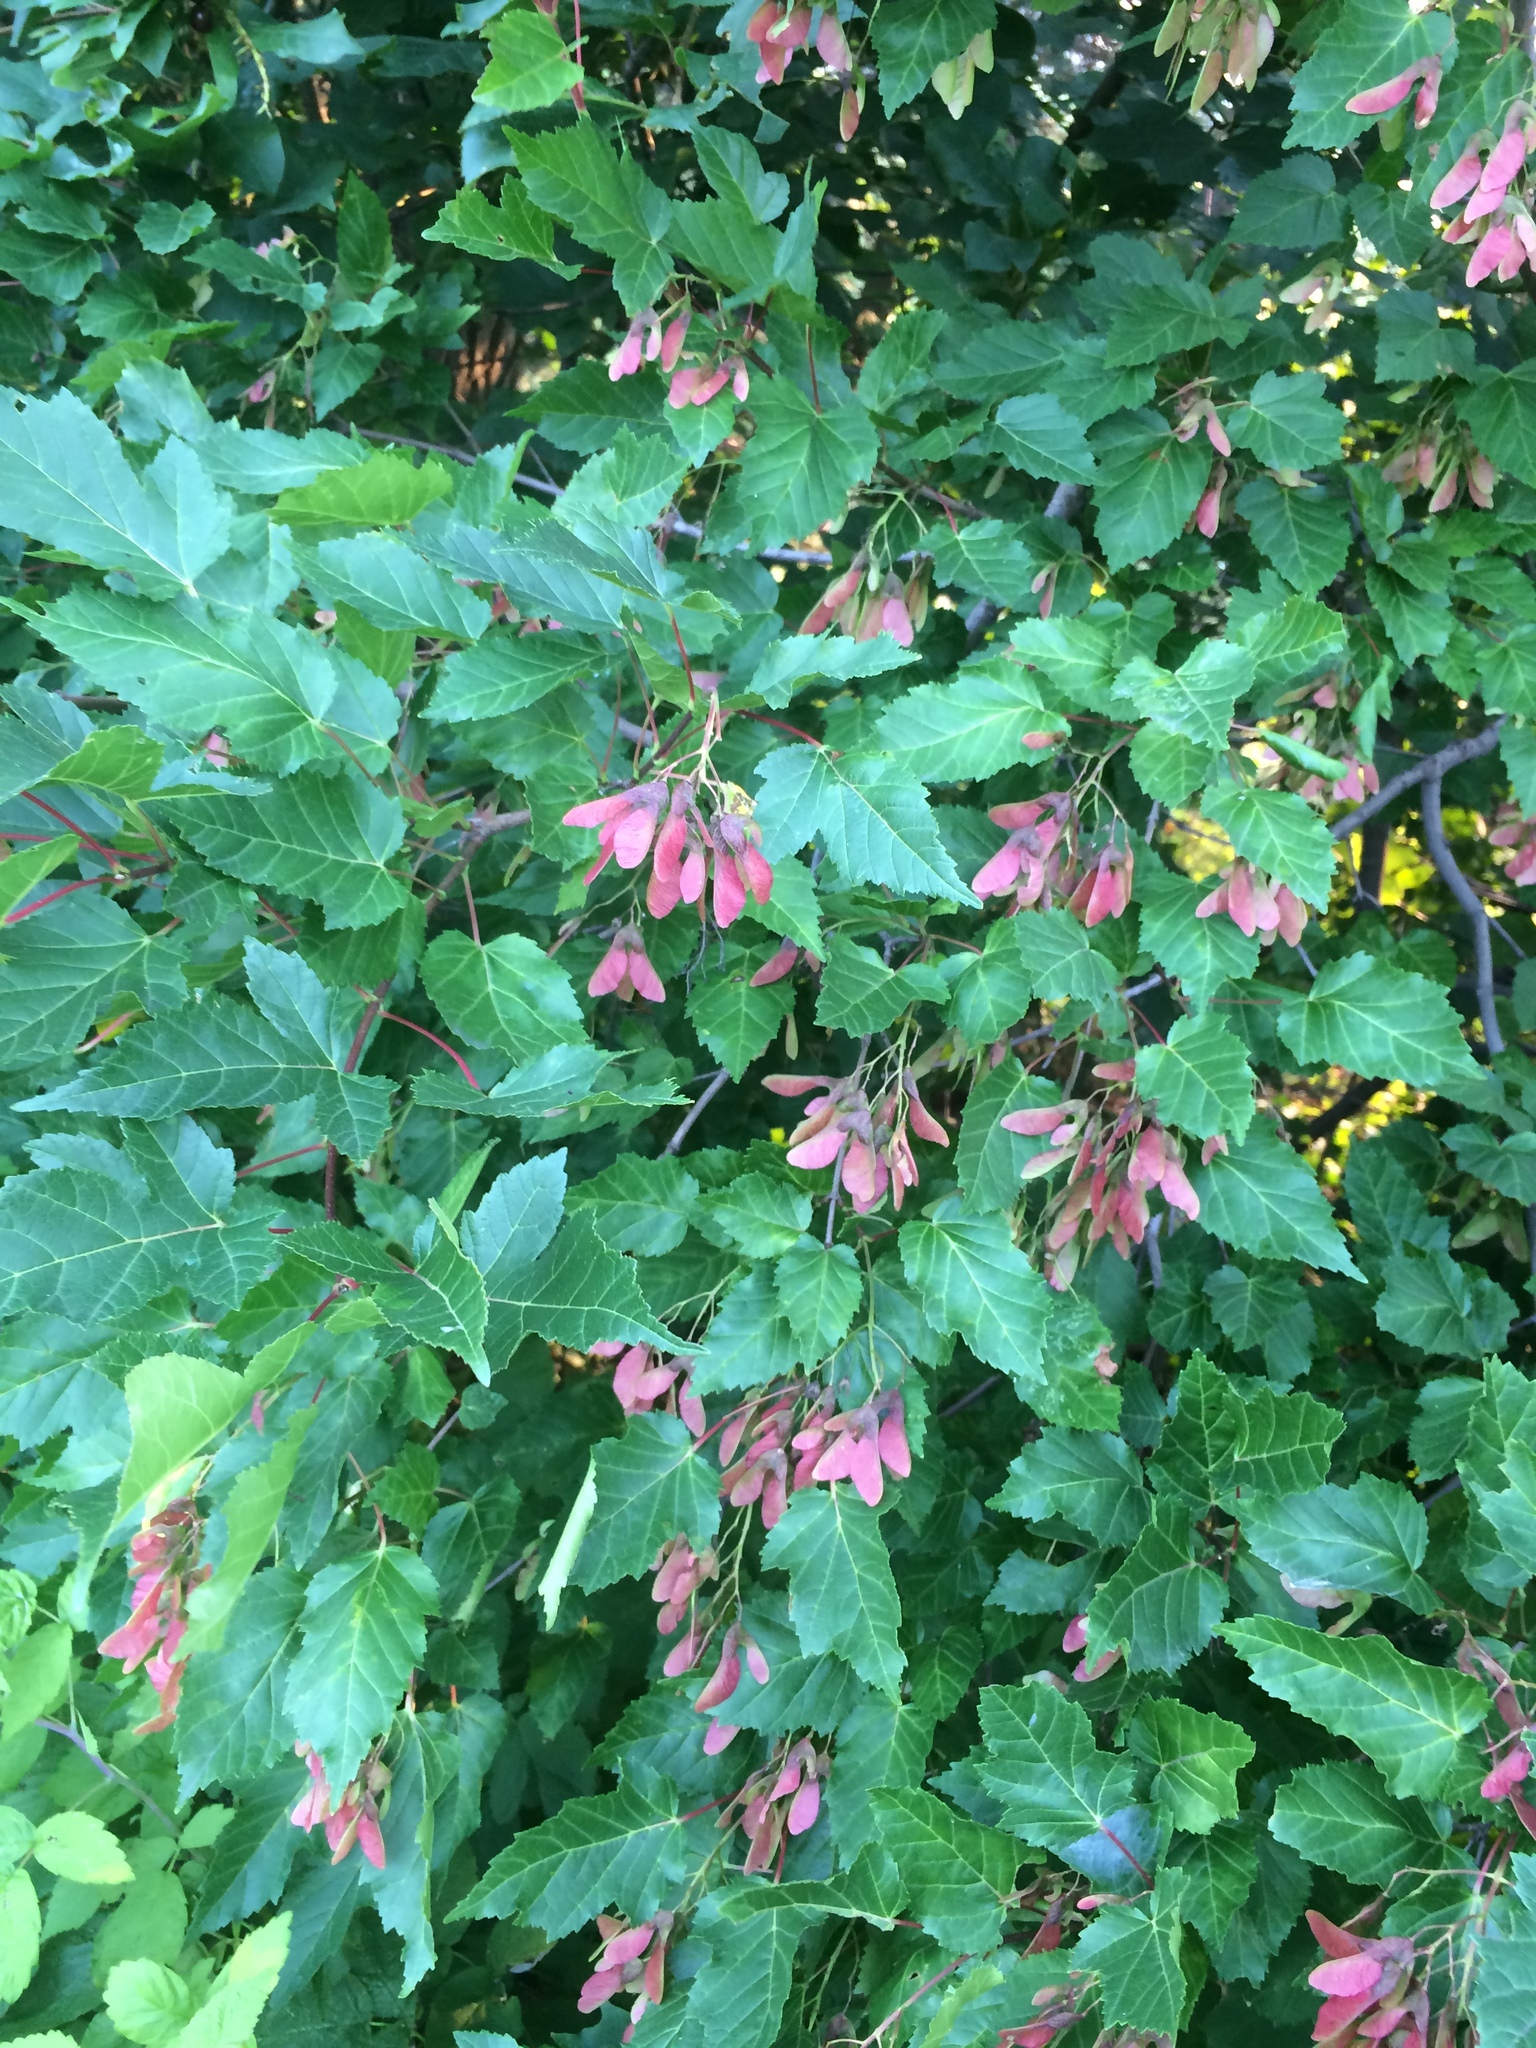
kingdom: Plantae
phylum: Tracheophyta
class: Magnoliopsida
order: Sapindales
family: Sapindaceae
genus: Acer
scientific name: Acer tataricum
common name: Tartar maple
